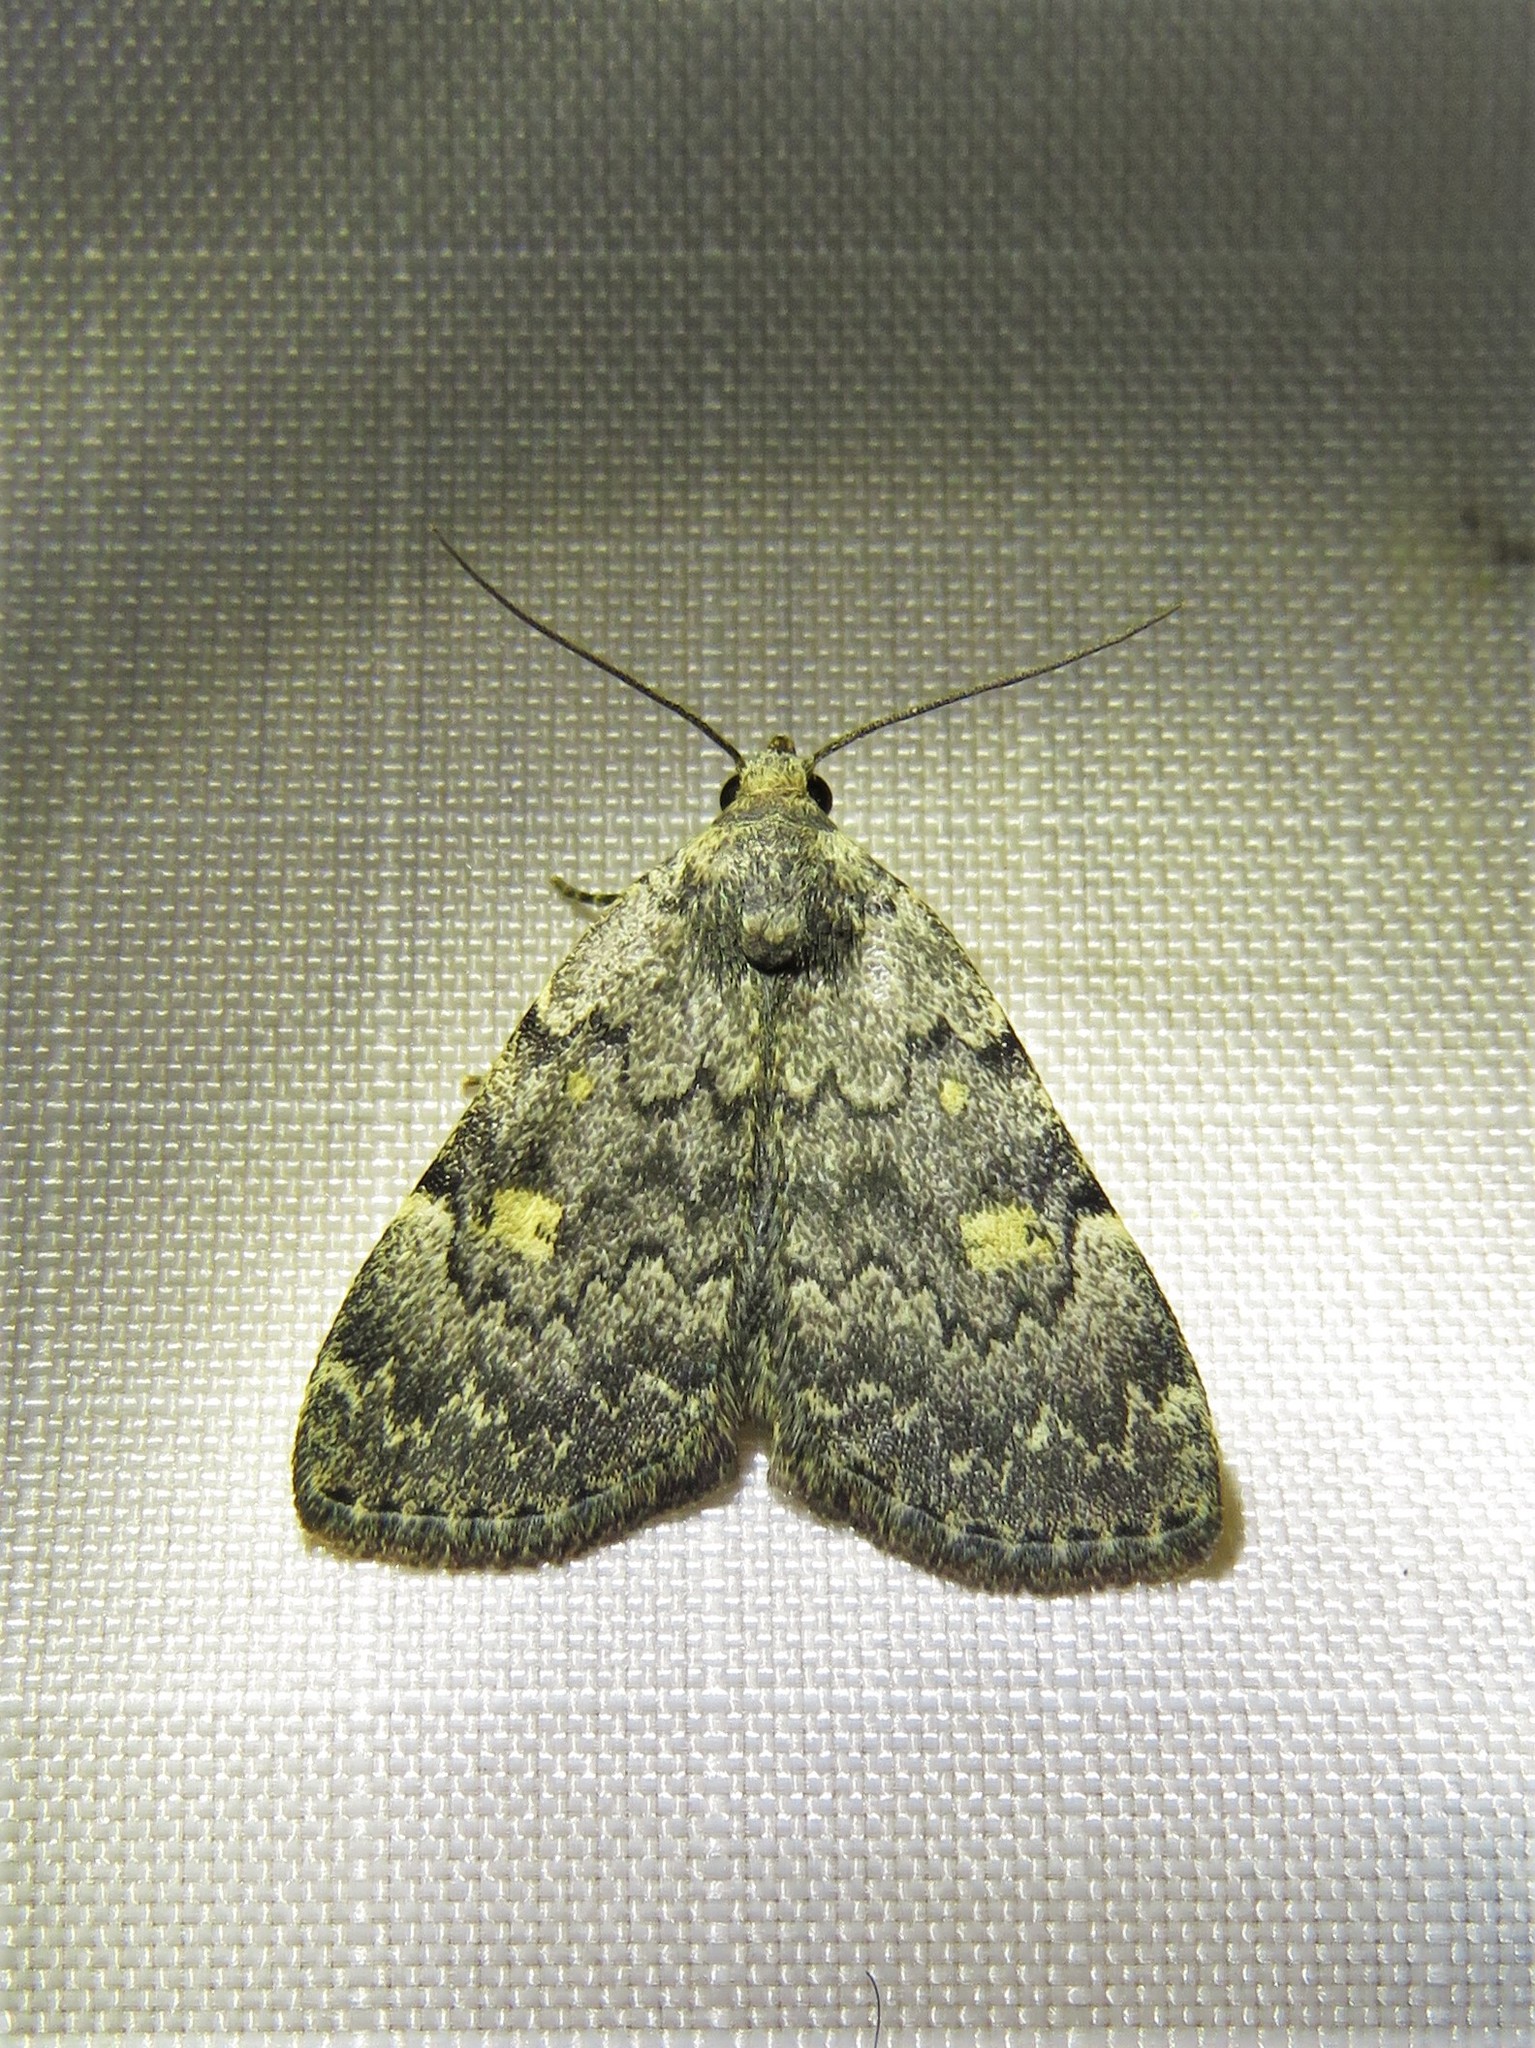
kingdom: Animalia
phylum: Arthropoda
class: Insecta
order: Lepidoptera
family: Erebidae
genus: Idia
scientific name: Idia aemula
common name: Common idia moth
